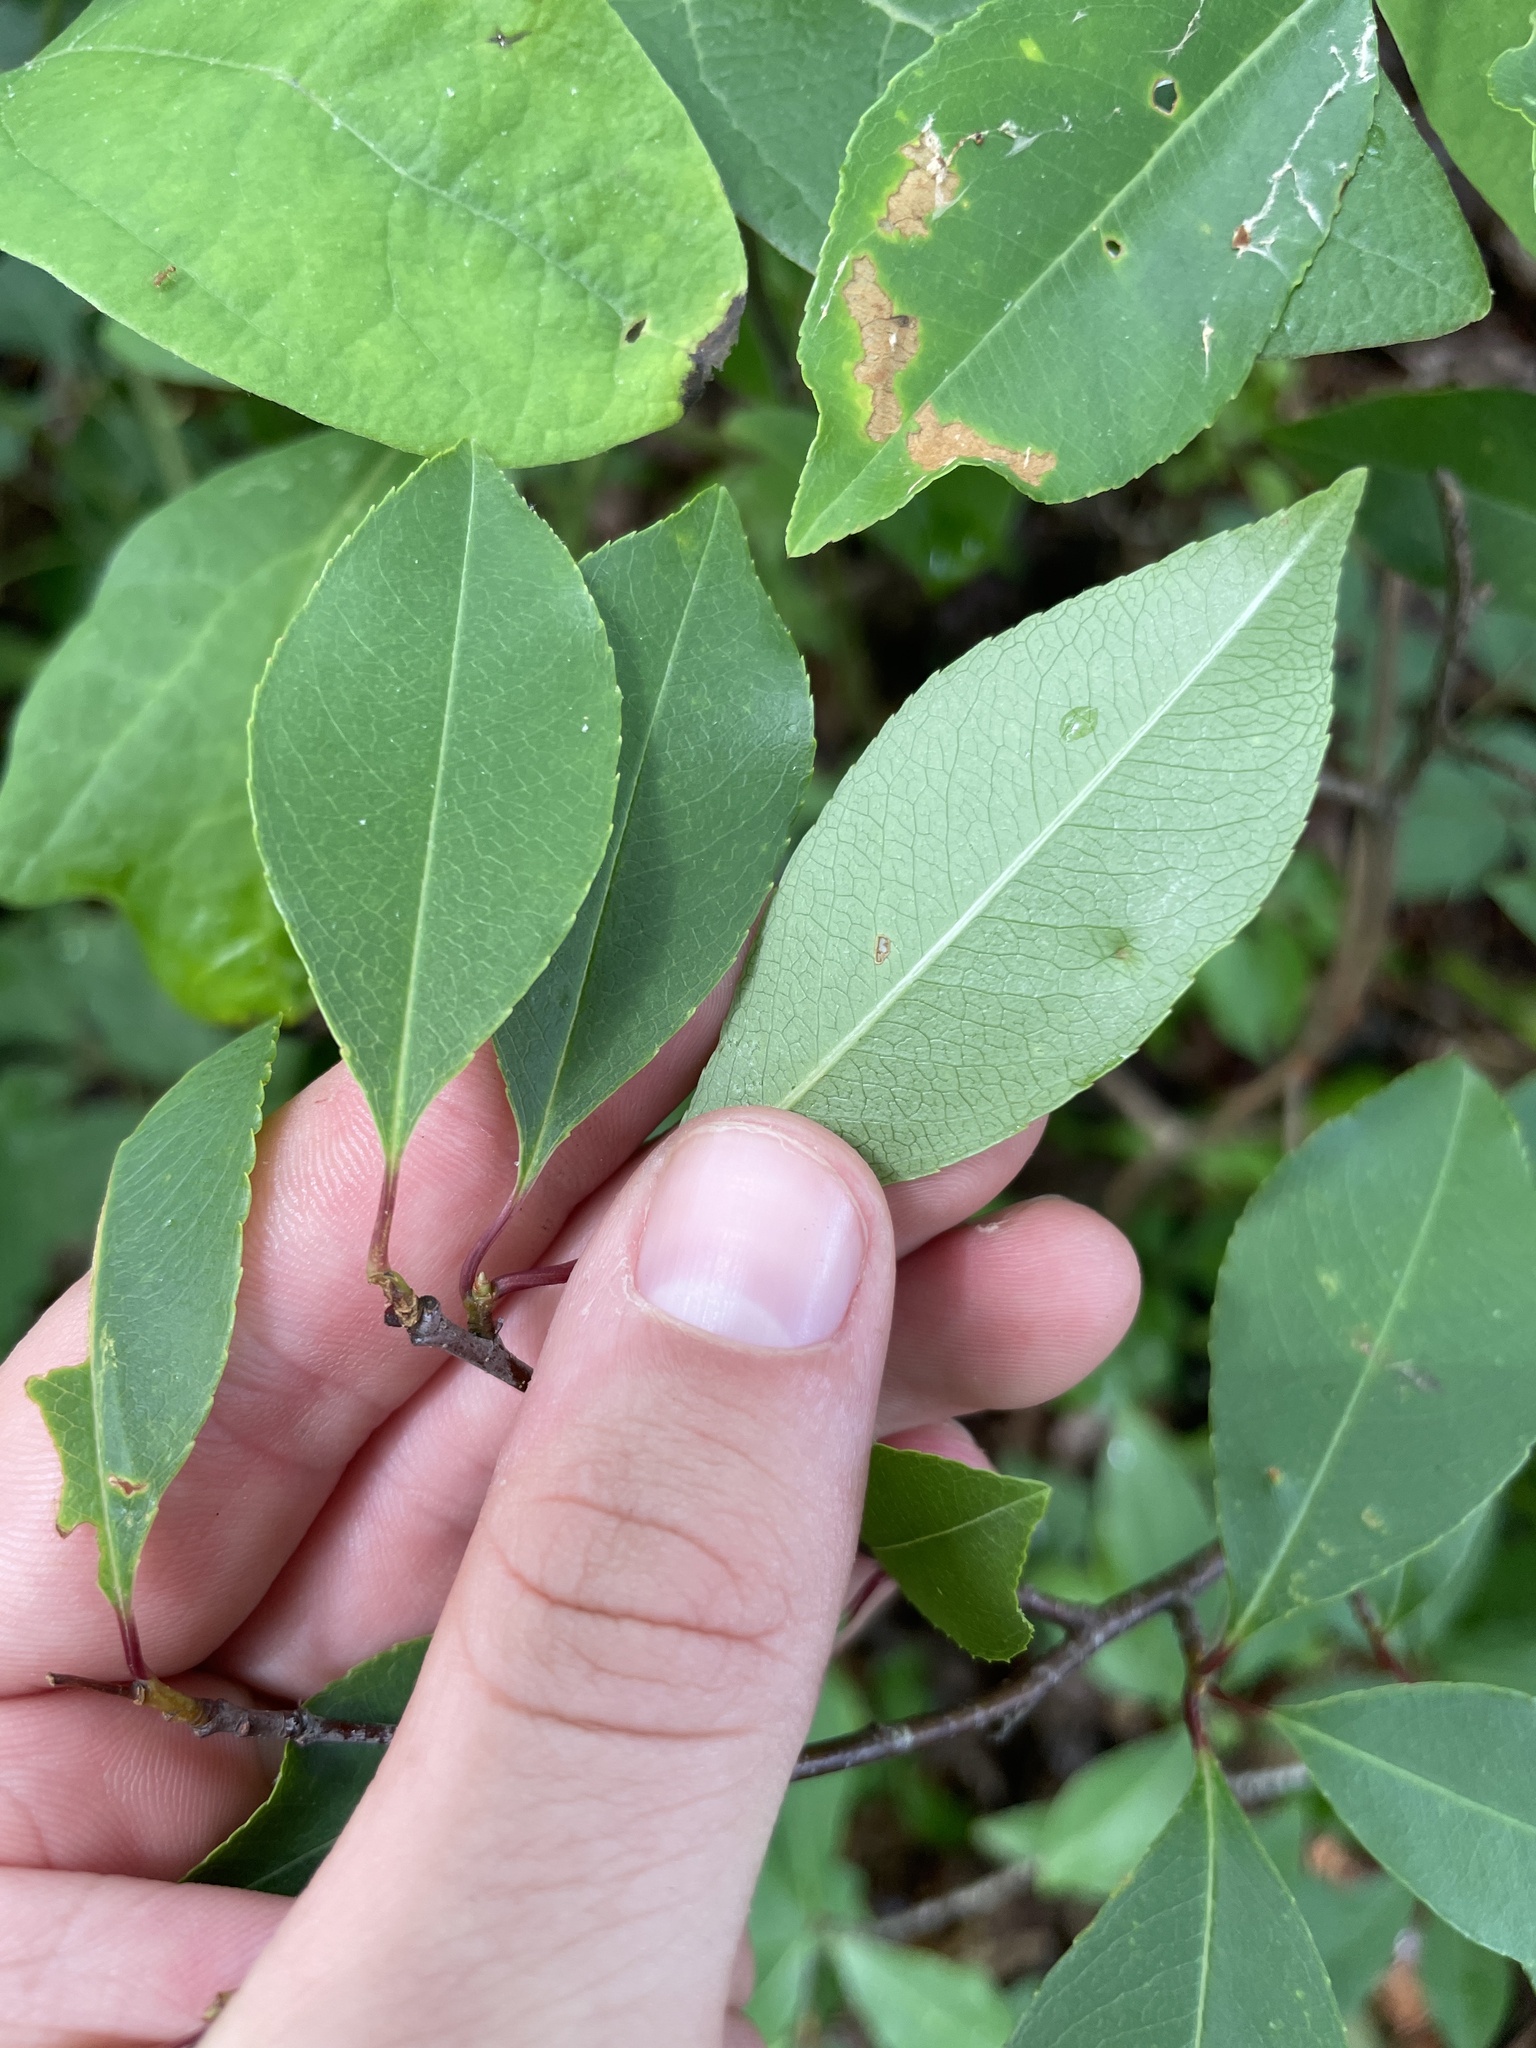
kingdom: Plantae
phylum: Tracheophyta
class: Magnoliopsida
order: Rosales
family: Rosaceae
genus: Prunus
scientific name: Prunus serotina
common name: Black cherry
